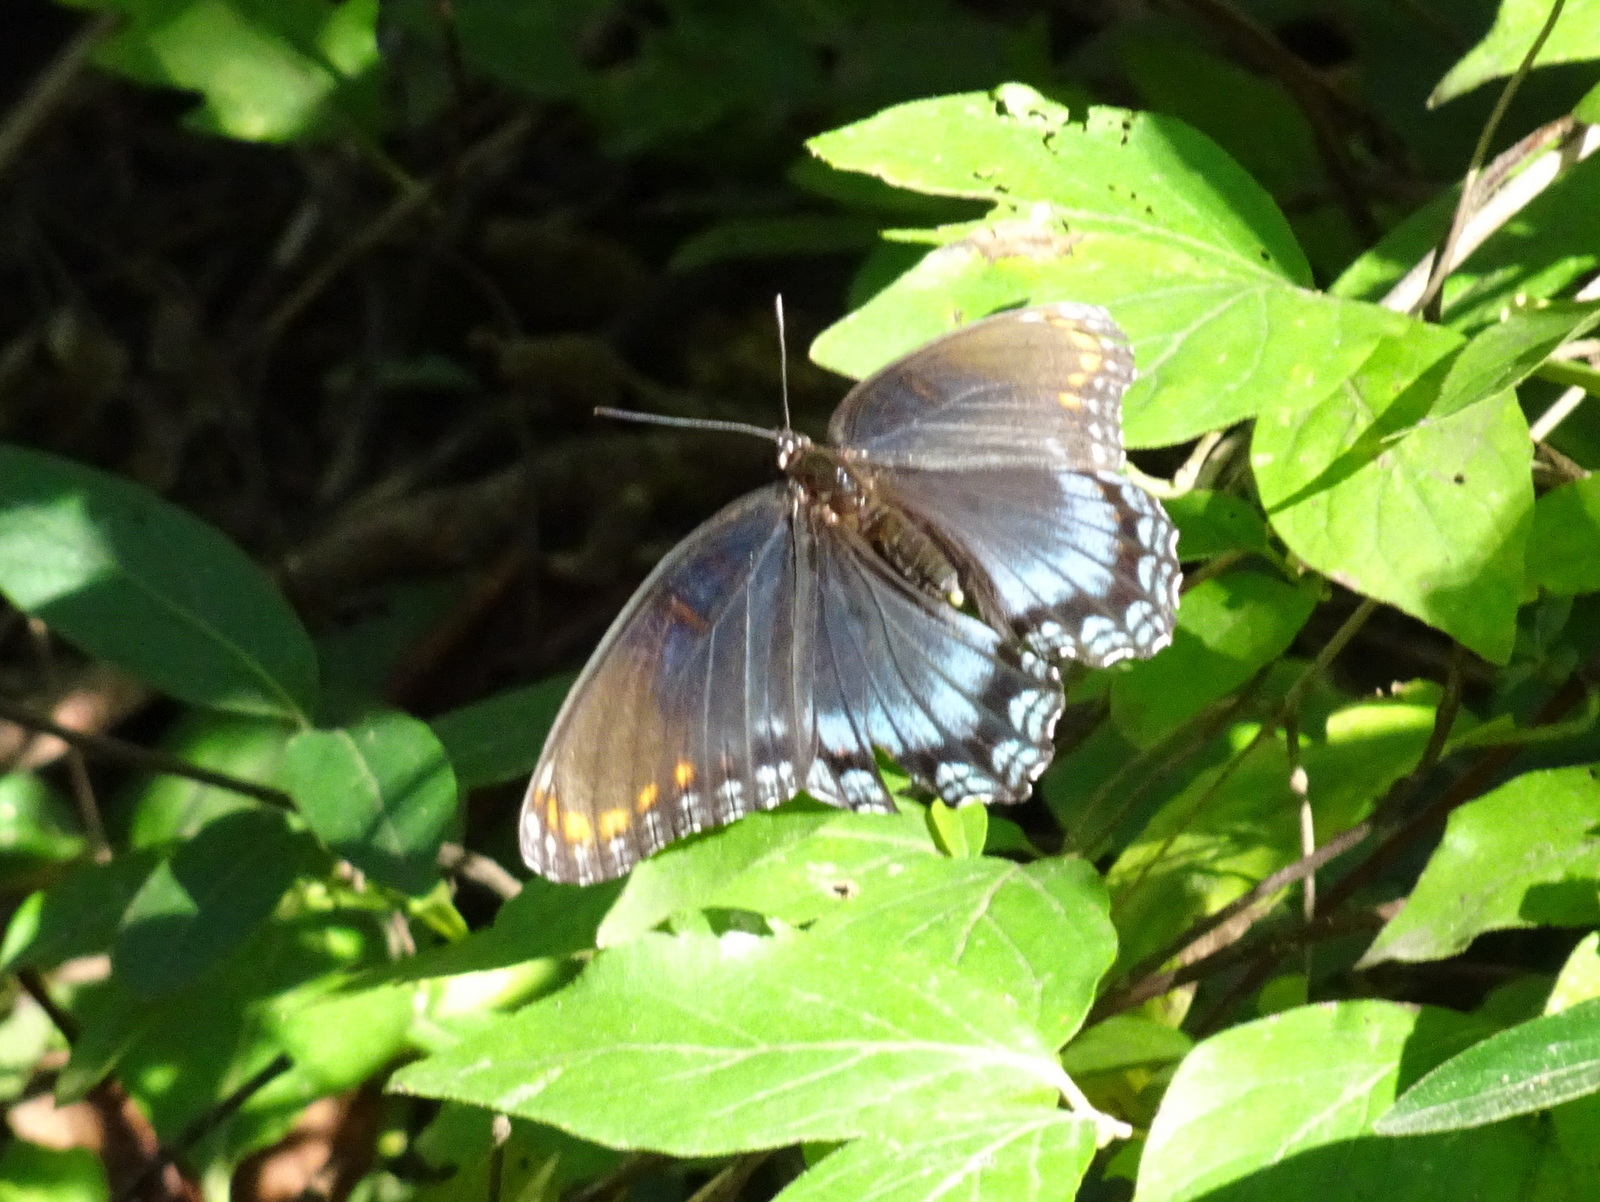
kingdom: Animalia
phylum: Arthropoda
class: Insecta
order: Lepidoptera
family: Nymphalidae
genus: Limenitis
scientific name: Limenitis astyanax
